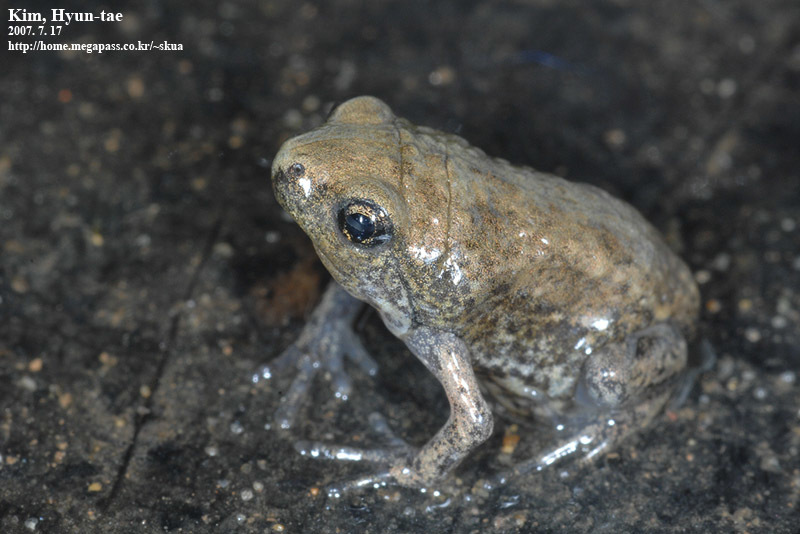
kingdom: Animalia
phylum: Chordata
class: Amphibia
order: Anura
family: Microhylidae
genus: Kaloula
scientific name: Kaloula borealis
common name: Boreal digging frog
